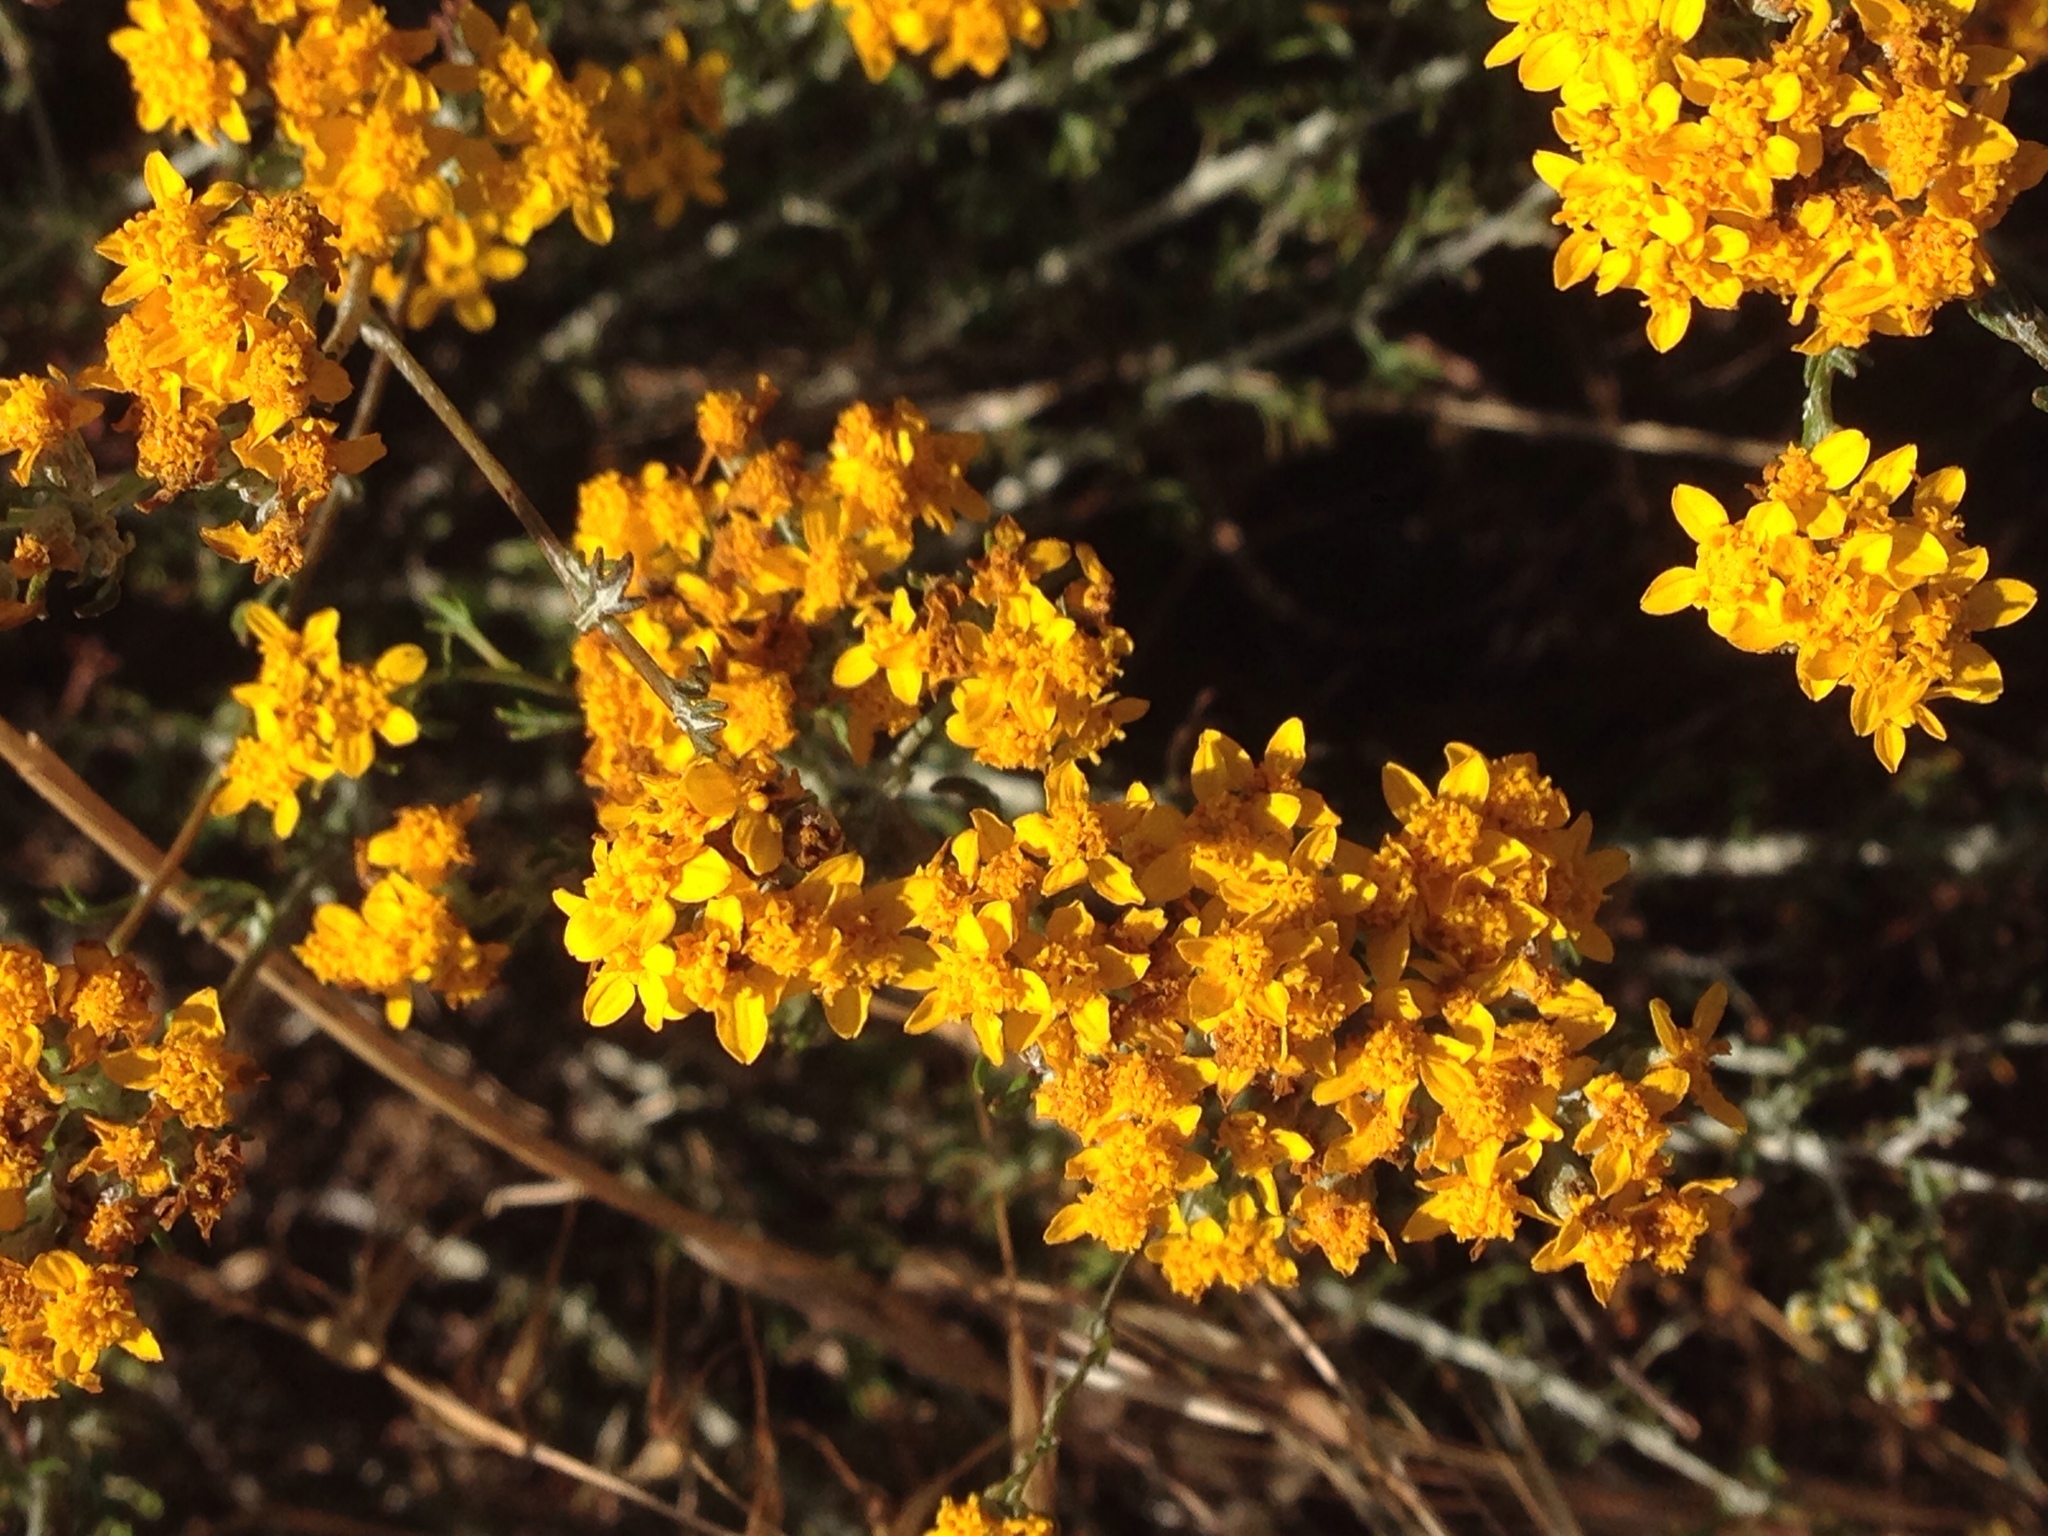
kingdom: Plantae
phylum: Tracheophyta
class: Magnoliopsida
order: Asterales
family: Asteraceae
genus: Eriophyllum
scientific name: Eriophyllum confertiflorum
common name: Golden-yarrow
